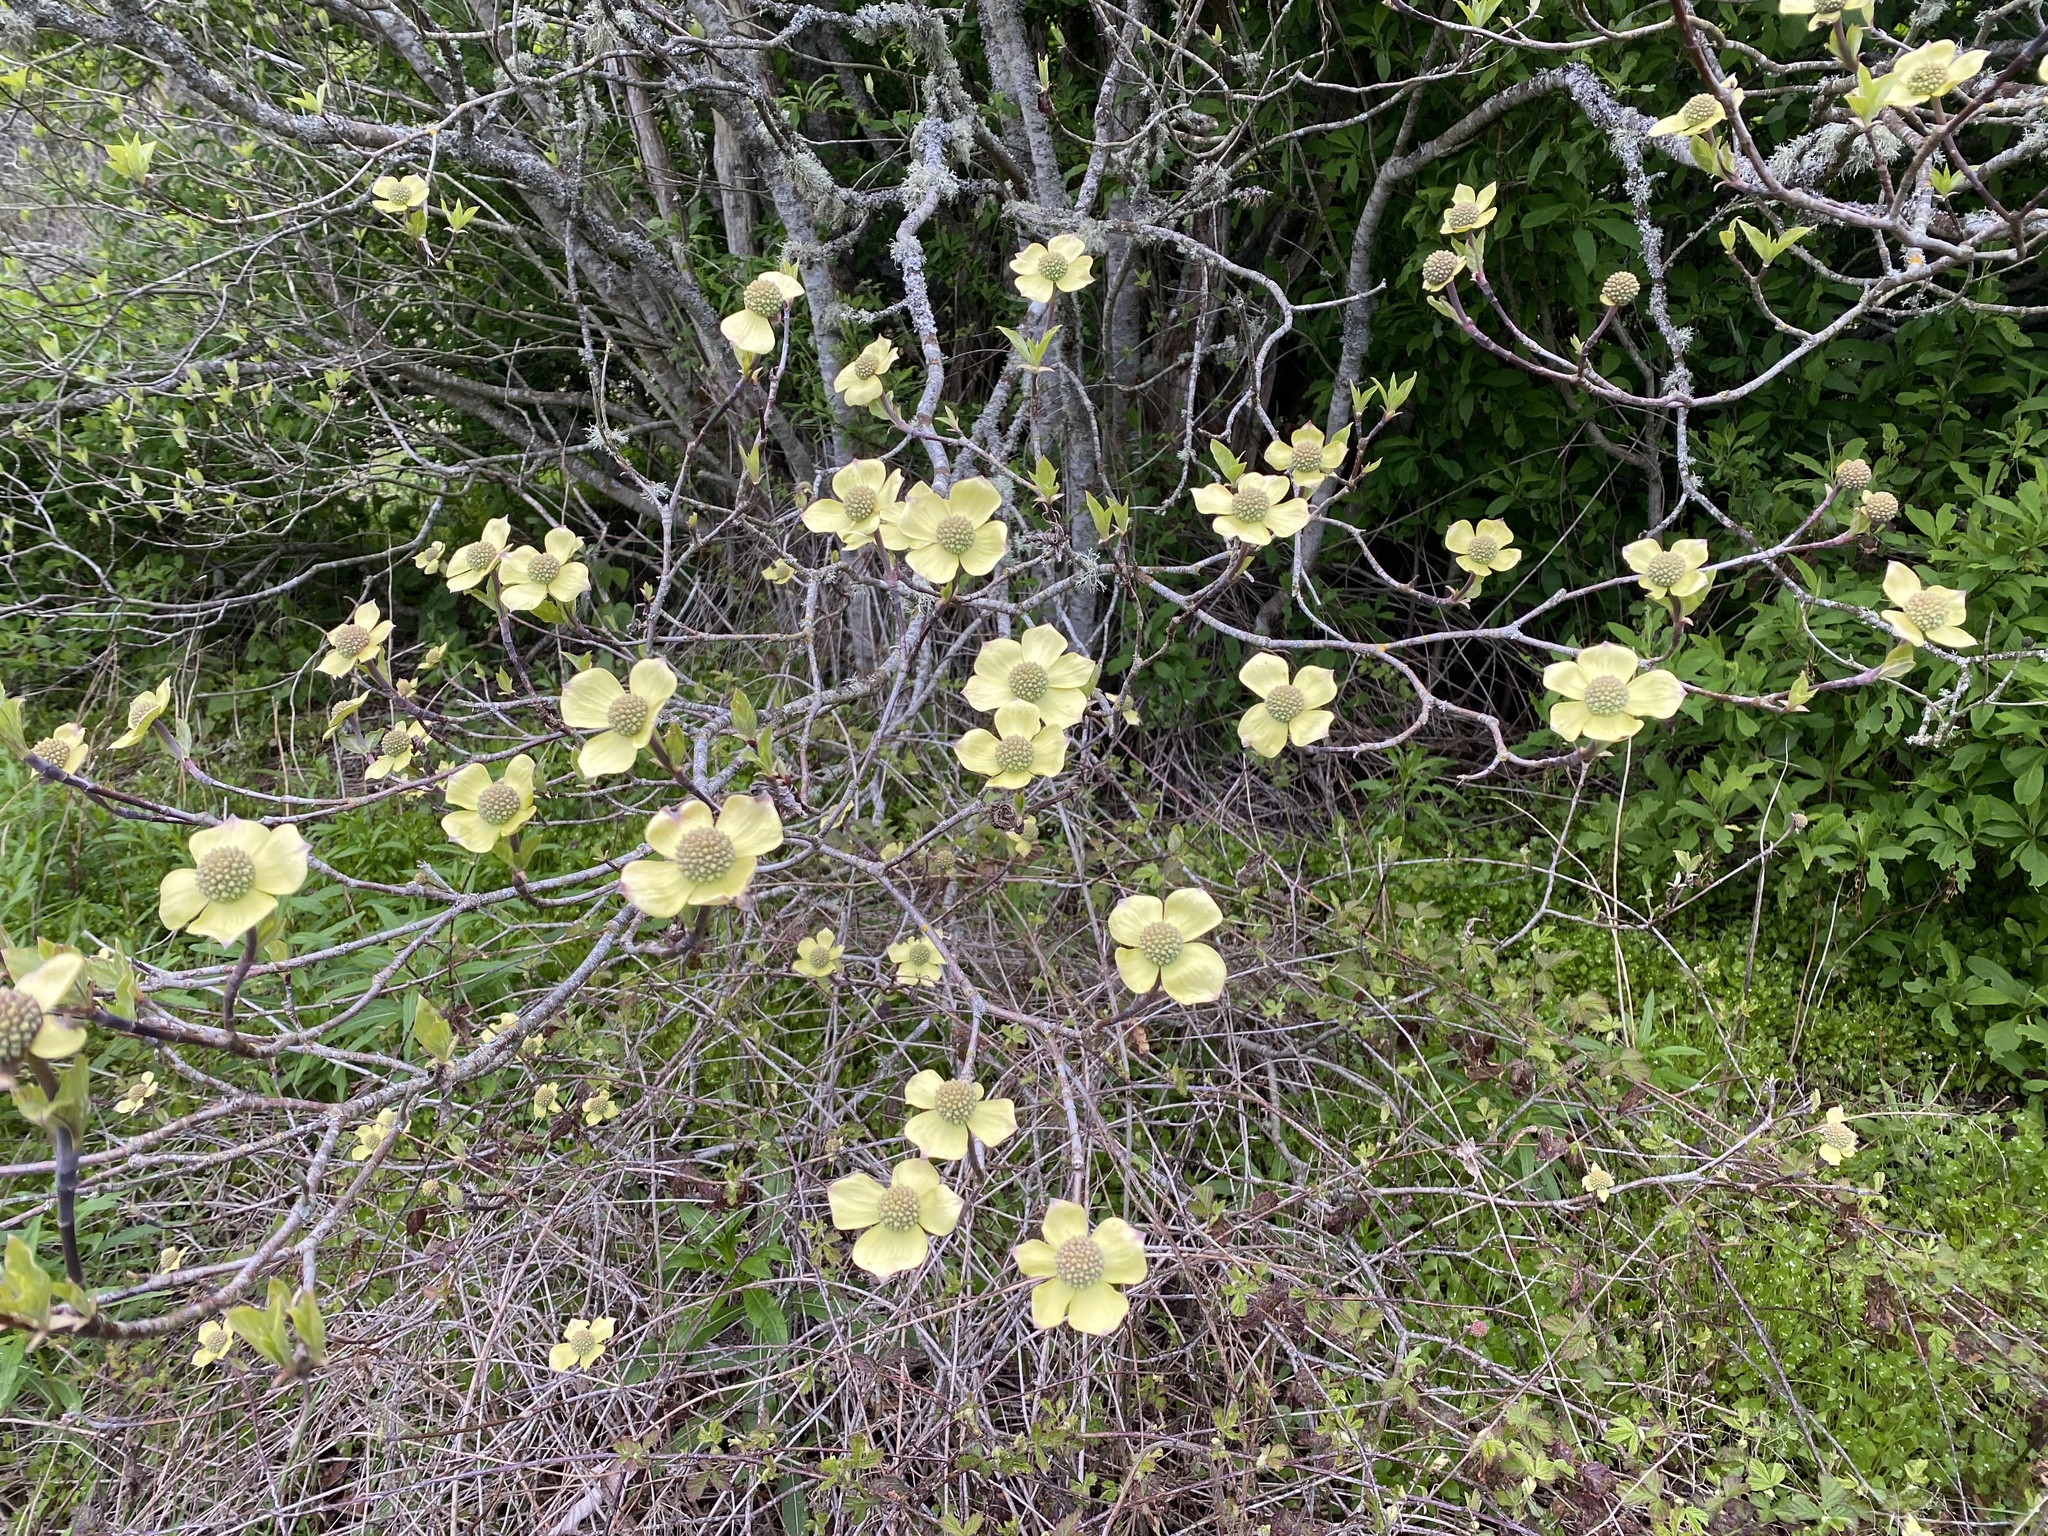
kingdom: Plantae
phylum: Tracheophyta
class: Magnoliopsida
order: Cornales
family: Cornaceae
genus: Cornus
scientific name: Cornus nuttallii
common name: Pacific dogwood
